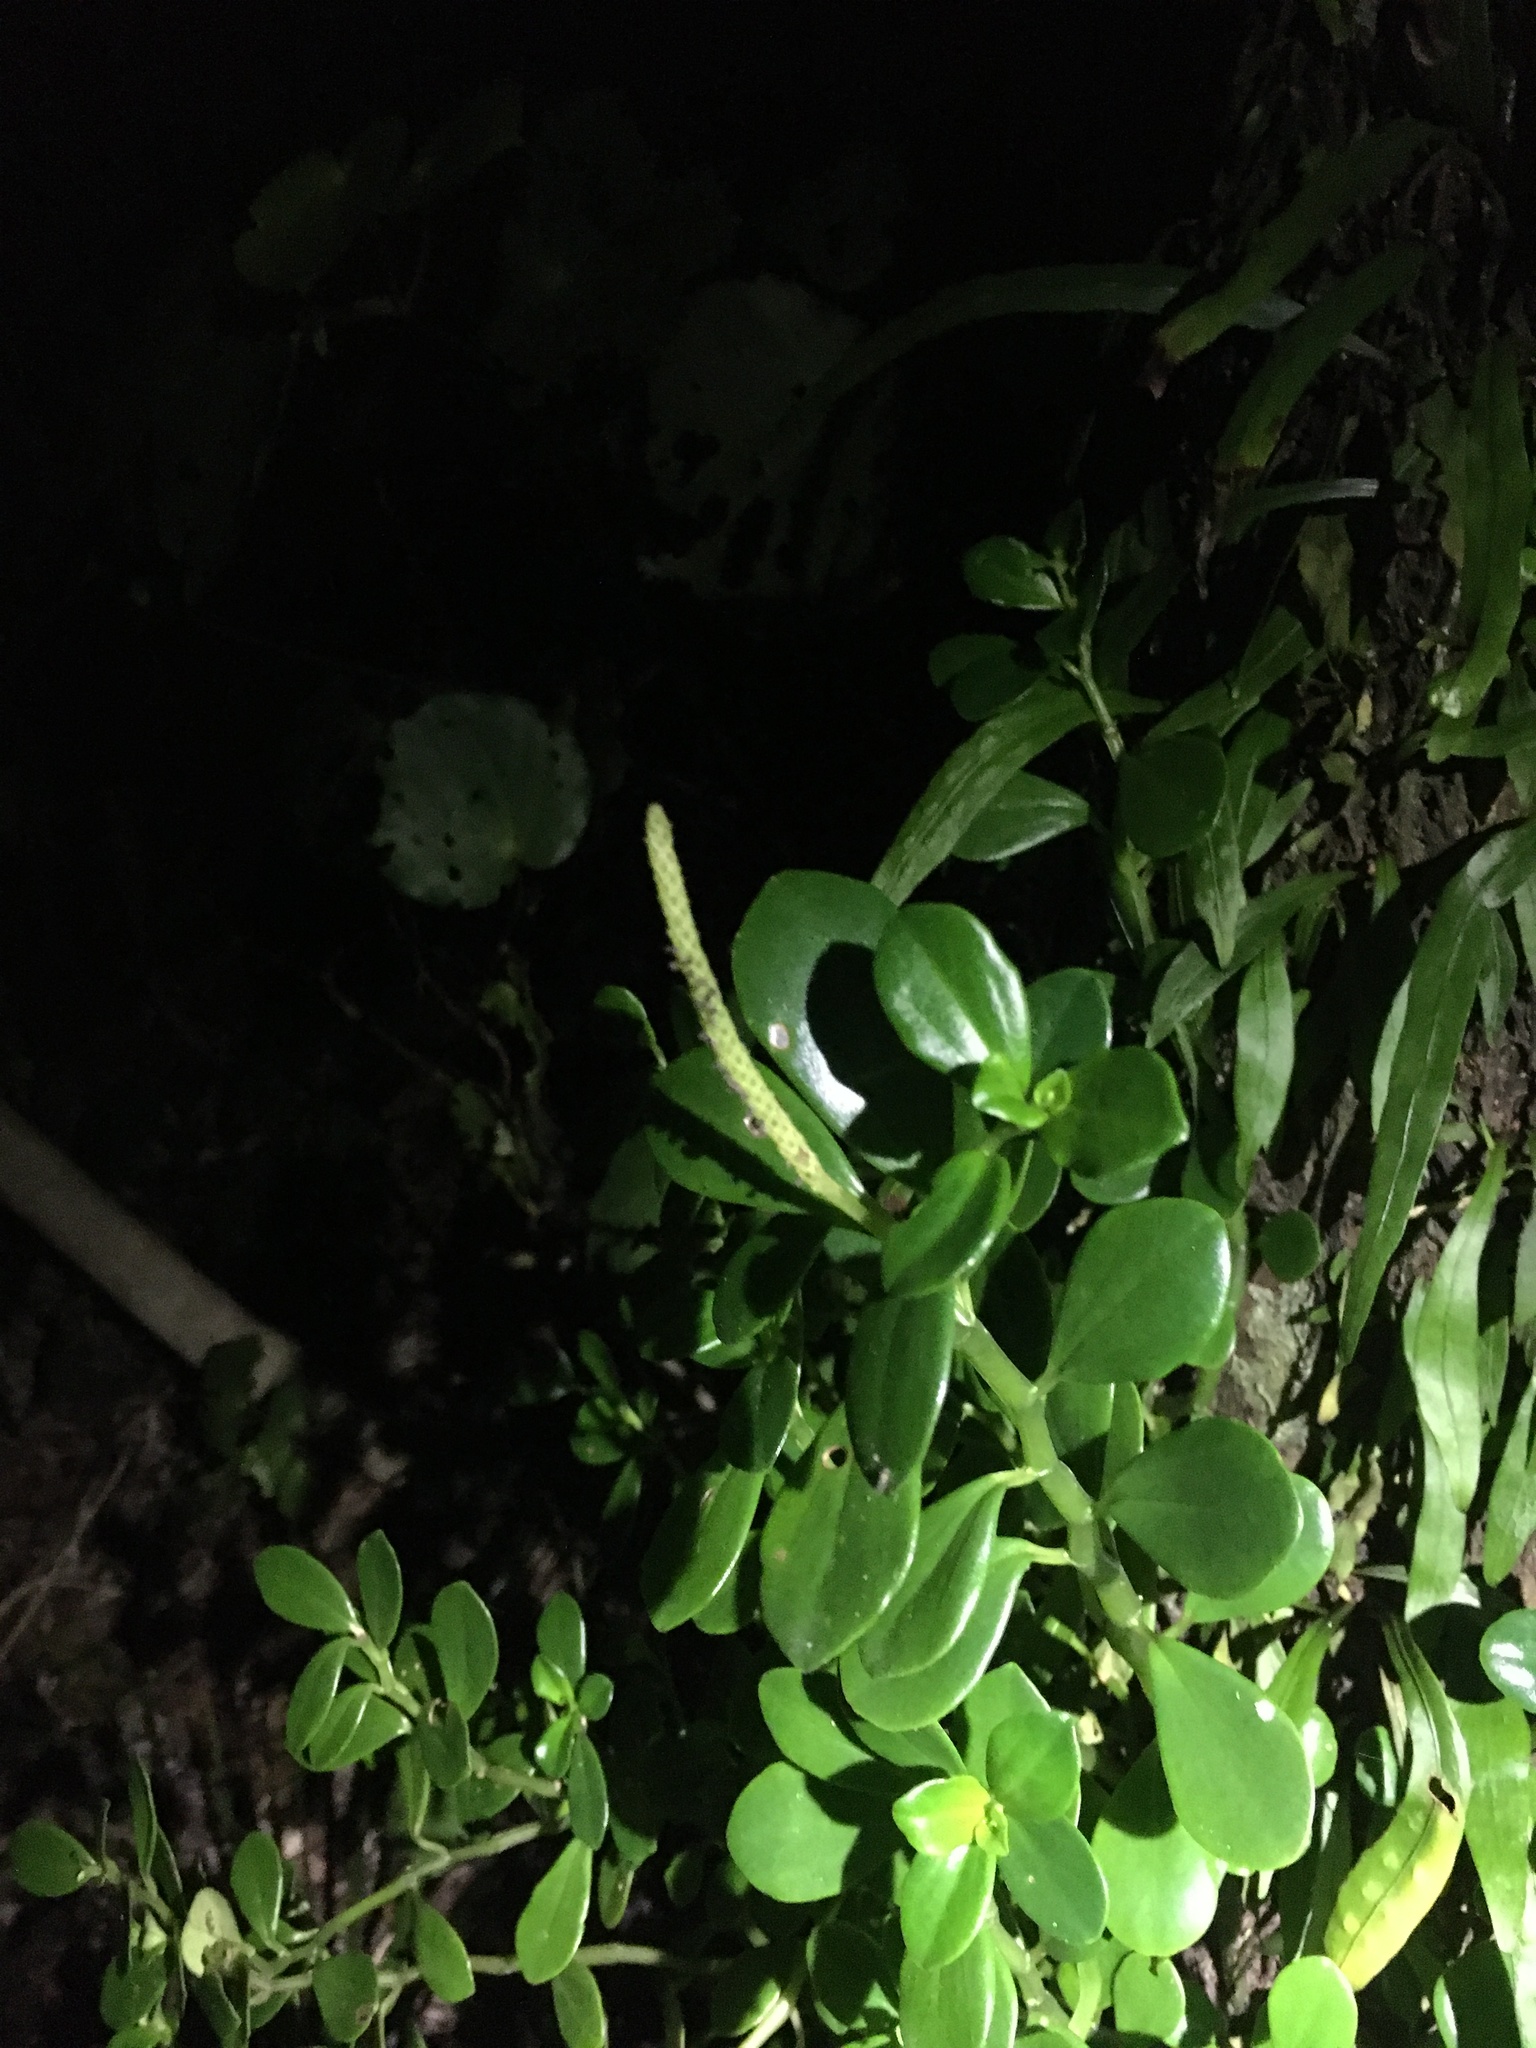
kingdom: Plantae
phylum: Tracheophyta
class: Magnoliopsida
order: Piperales
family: Piperaceae
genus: Peperomia
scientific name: Peperomia urvilleana
